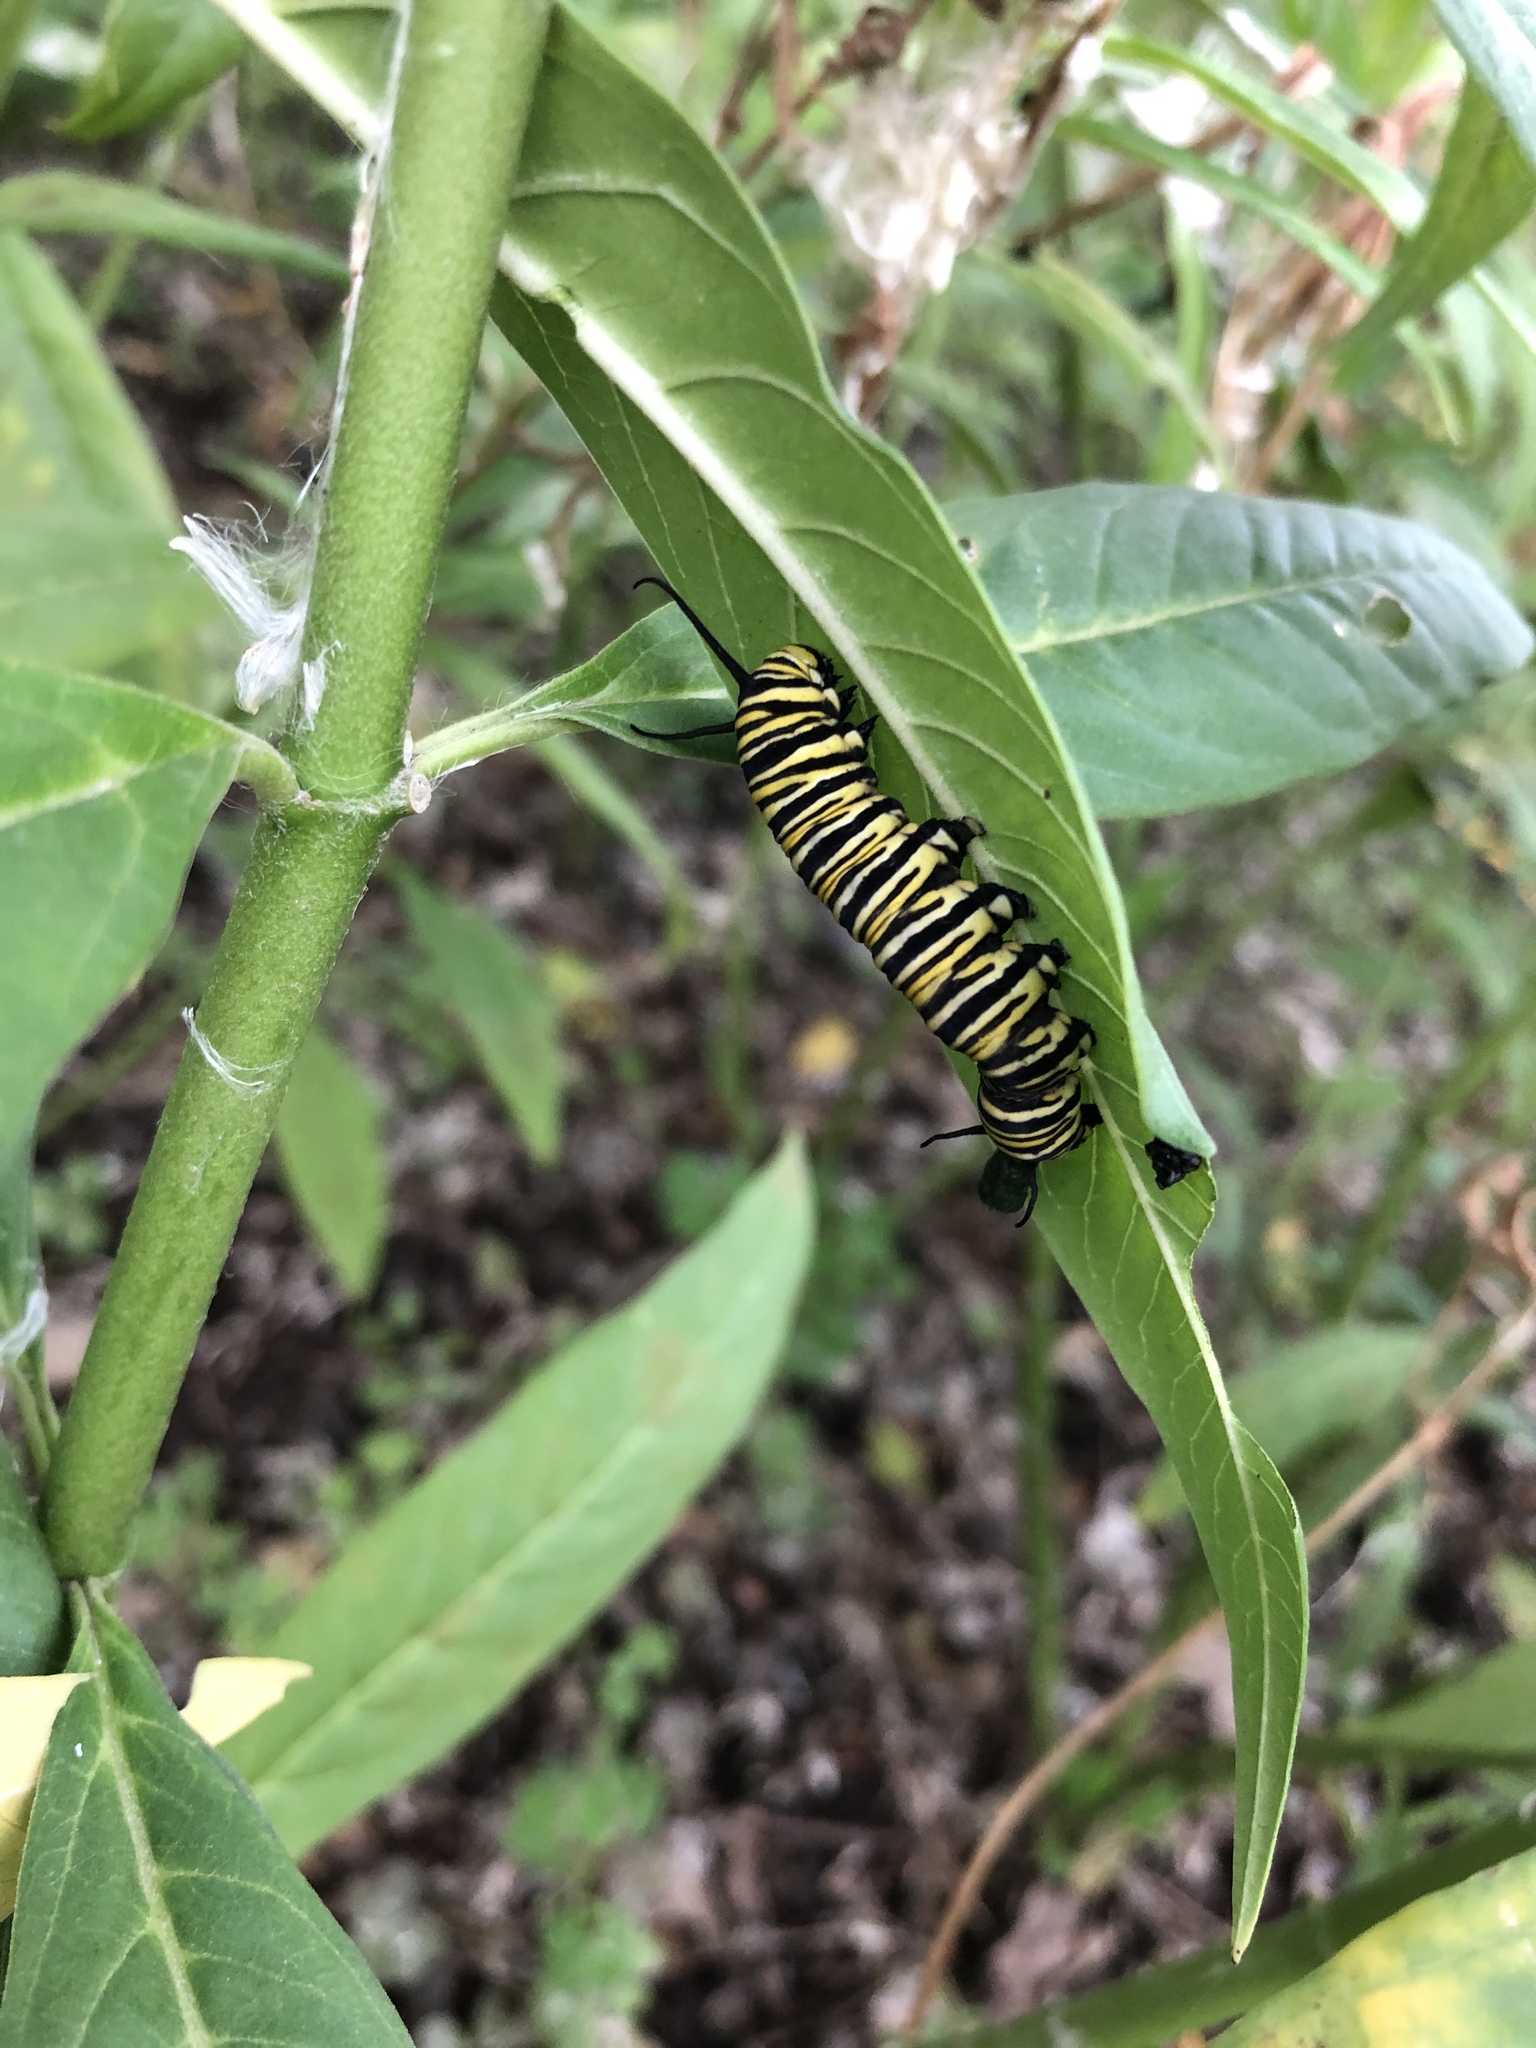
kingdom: Animalia
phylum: Arthropoda
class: Insecta
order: Lepidoptera
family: Nymphalidae
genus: Danaus
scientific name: Danaus plexippus
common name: Monarch
